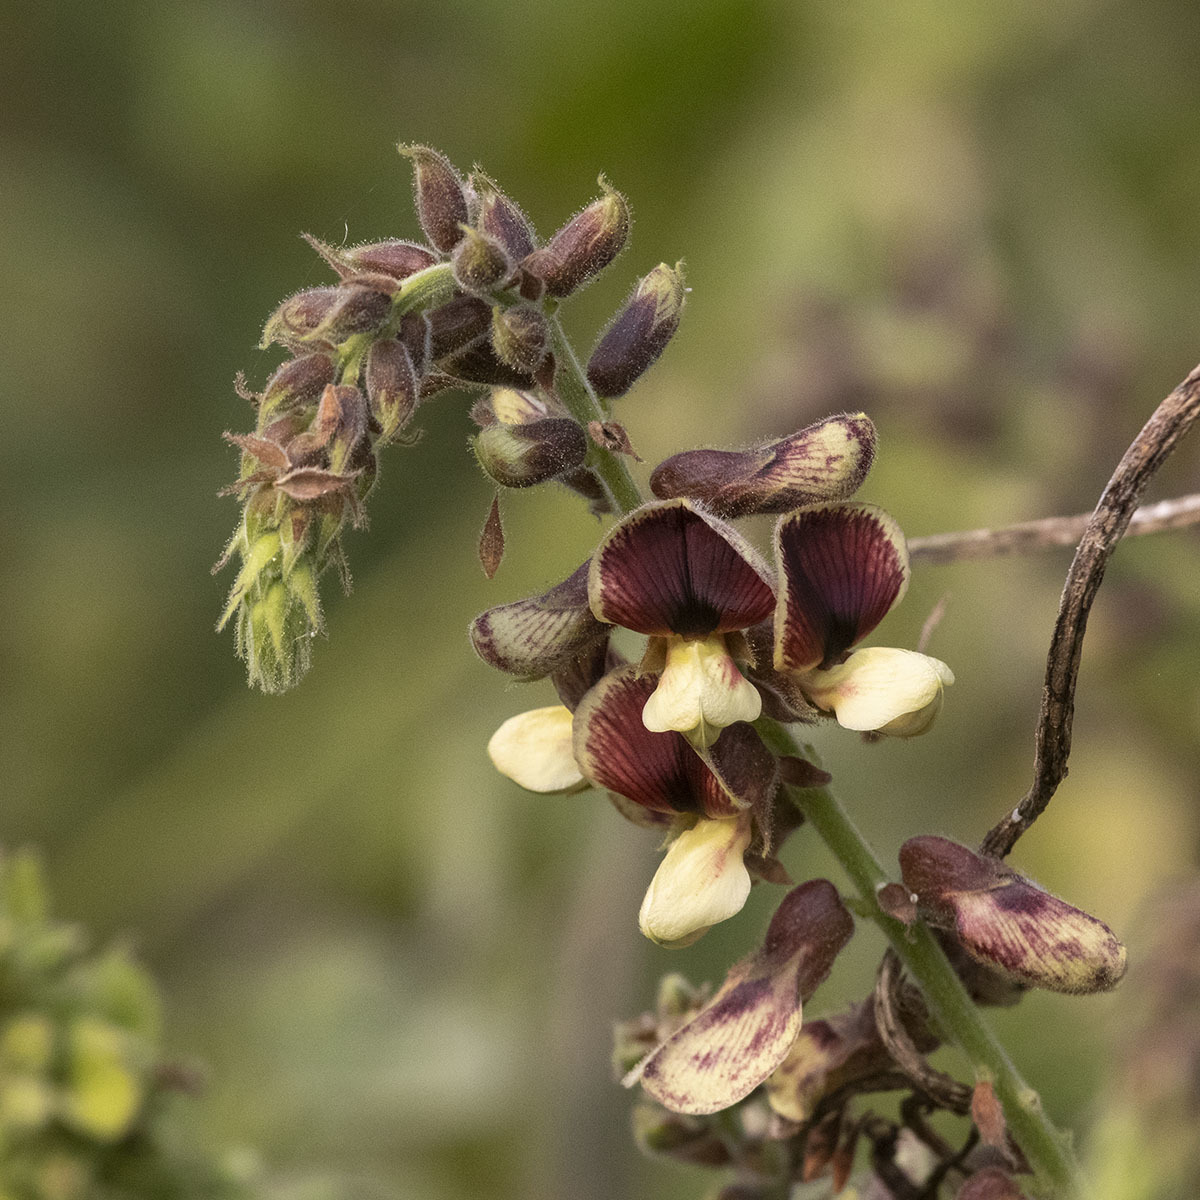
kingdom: Plantae
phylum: Tracheophyta
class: Magnoliopsida
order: Fabales
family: Fabaceae
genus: Rhynchosia
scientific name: Rhynchosia rothii
